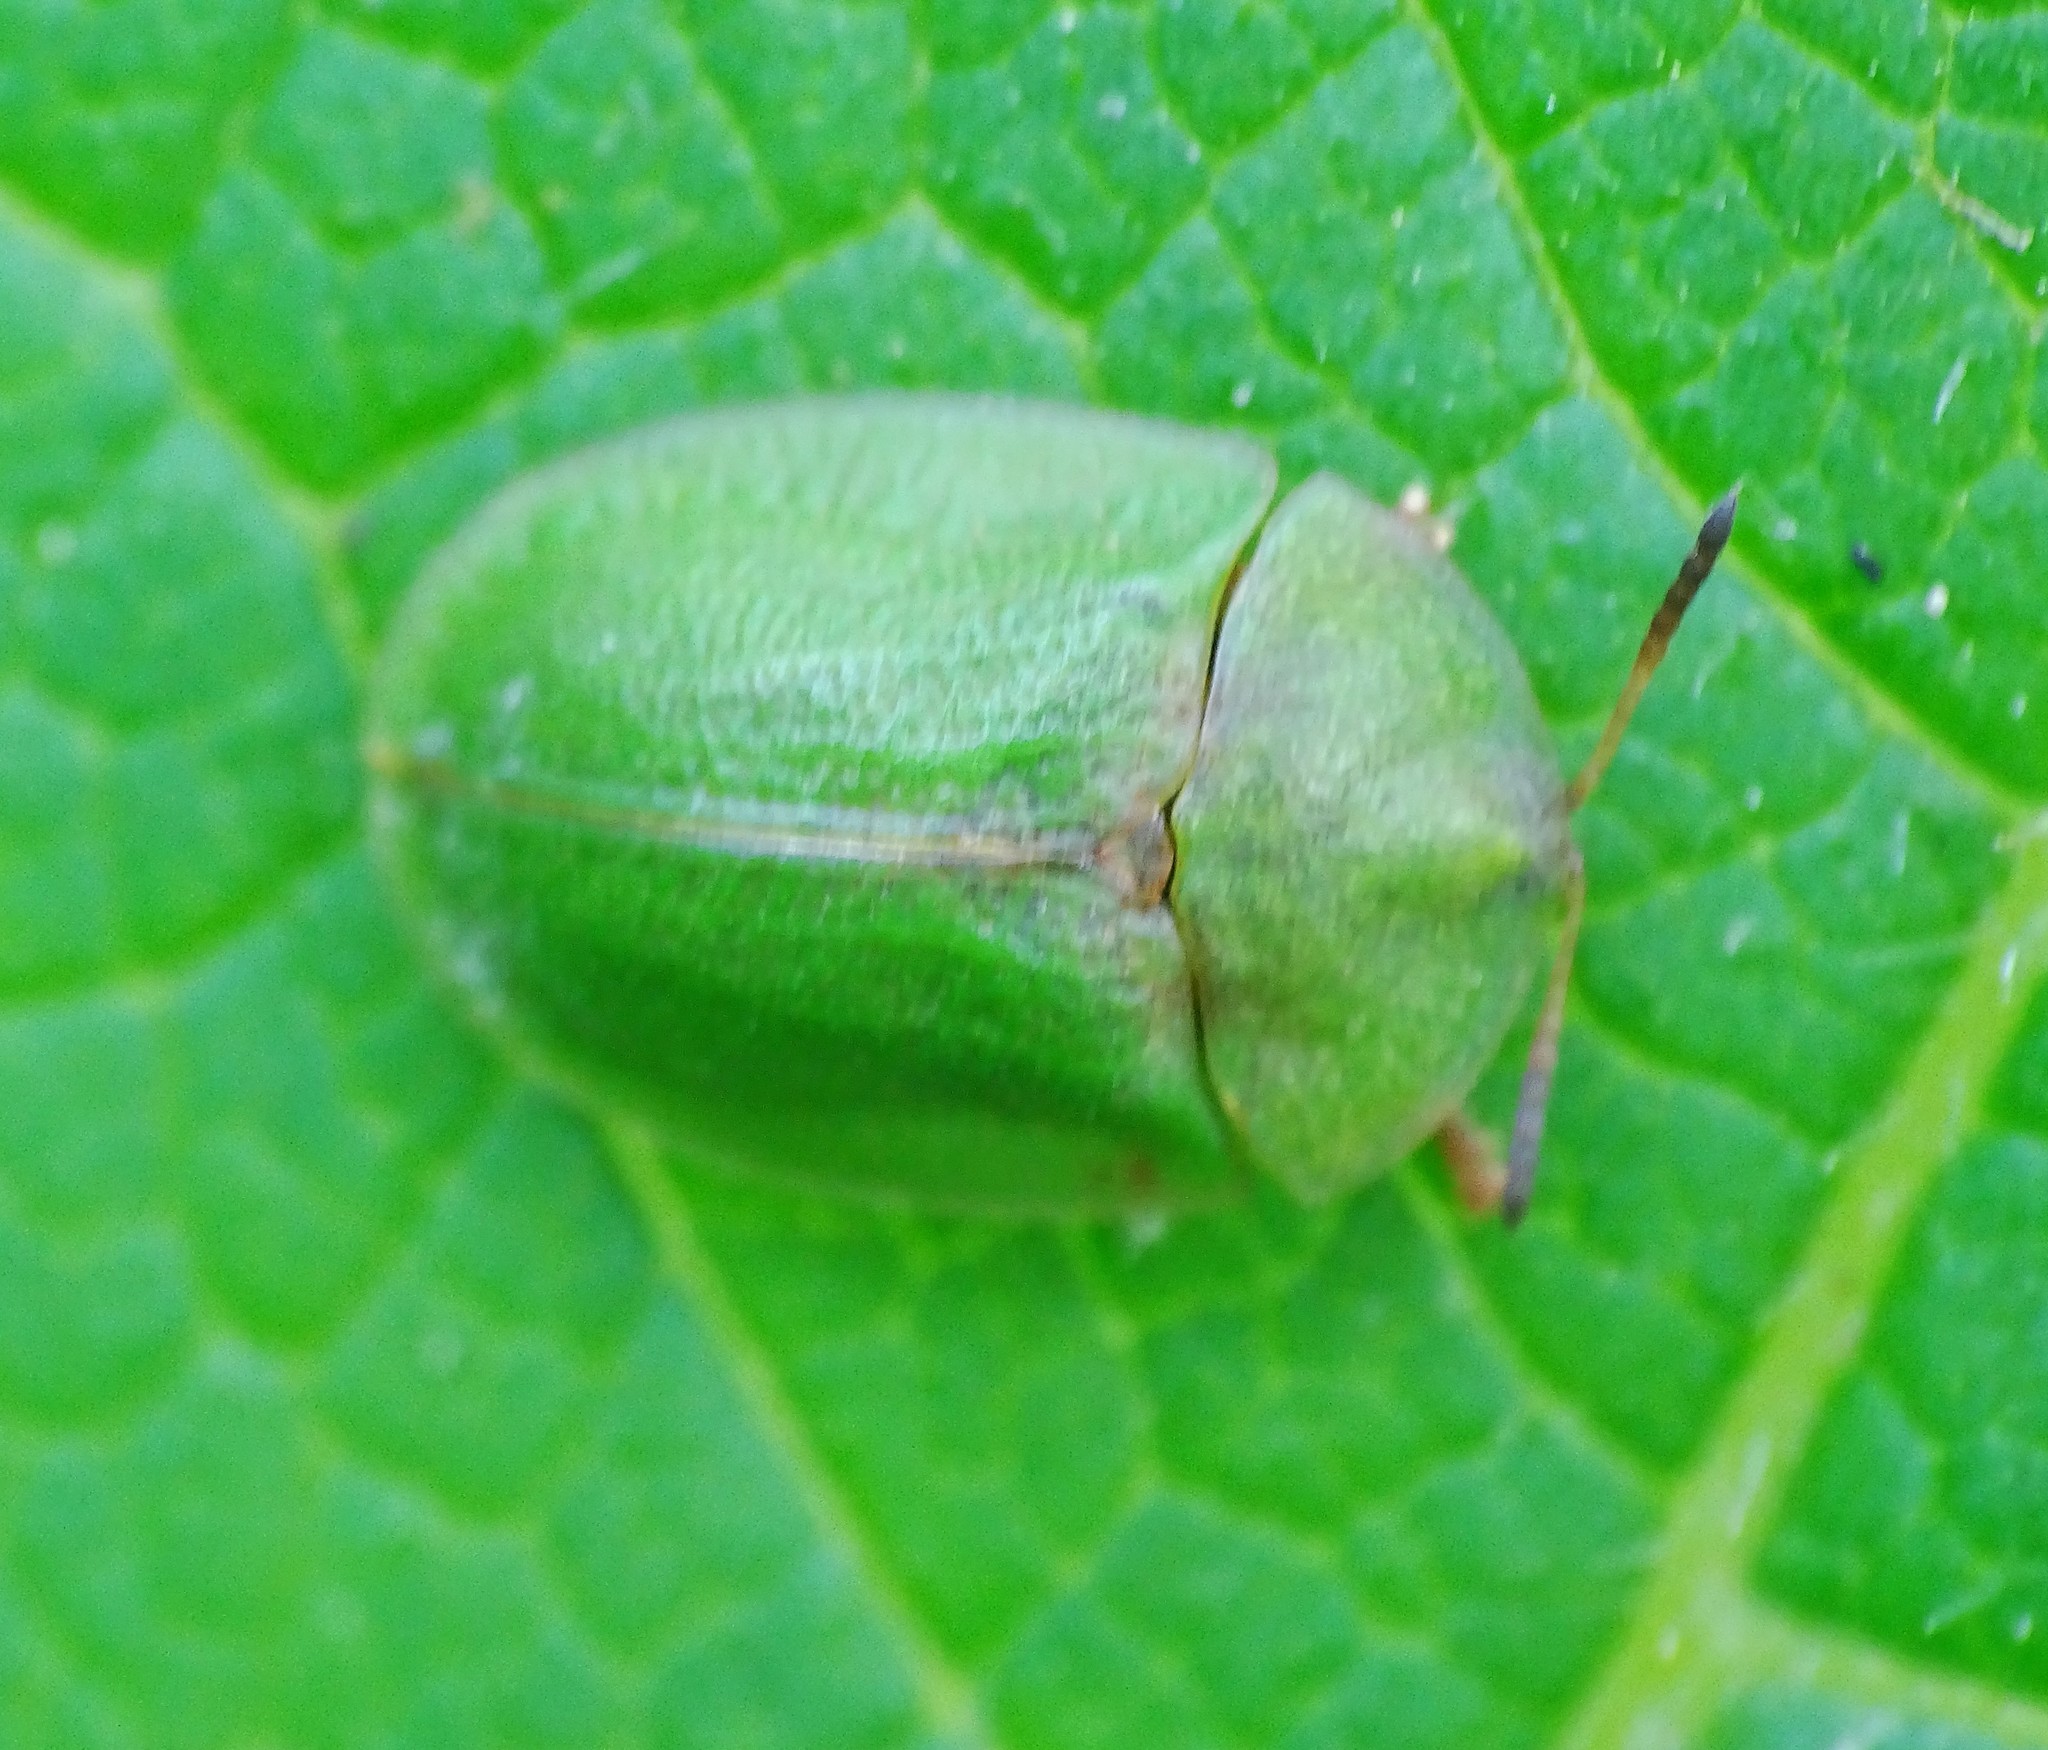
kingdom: Animalia
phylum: Arthropoda
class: Insecta
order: Coleoptera
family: Chrysomelidae
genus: Cassida
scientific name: Cassida rubiginosa
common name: Thistle tortoise beetle
